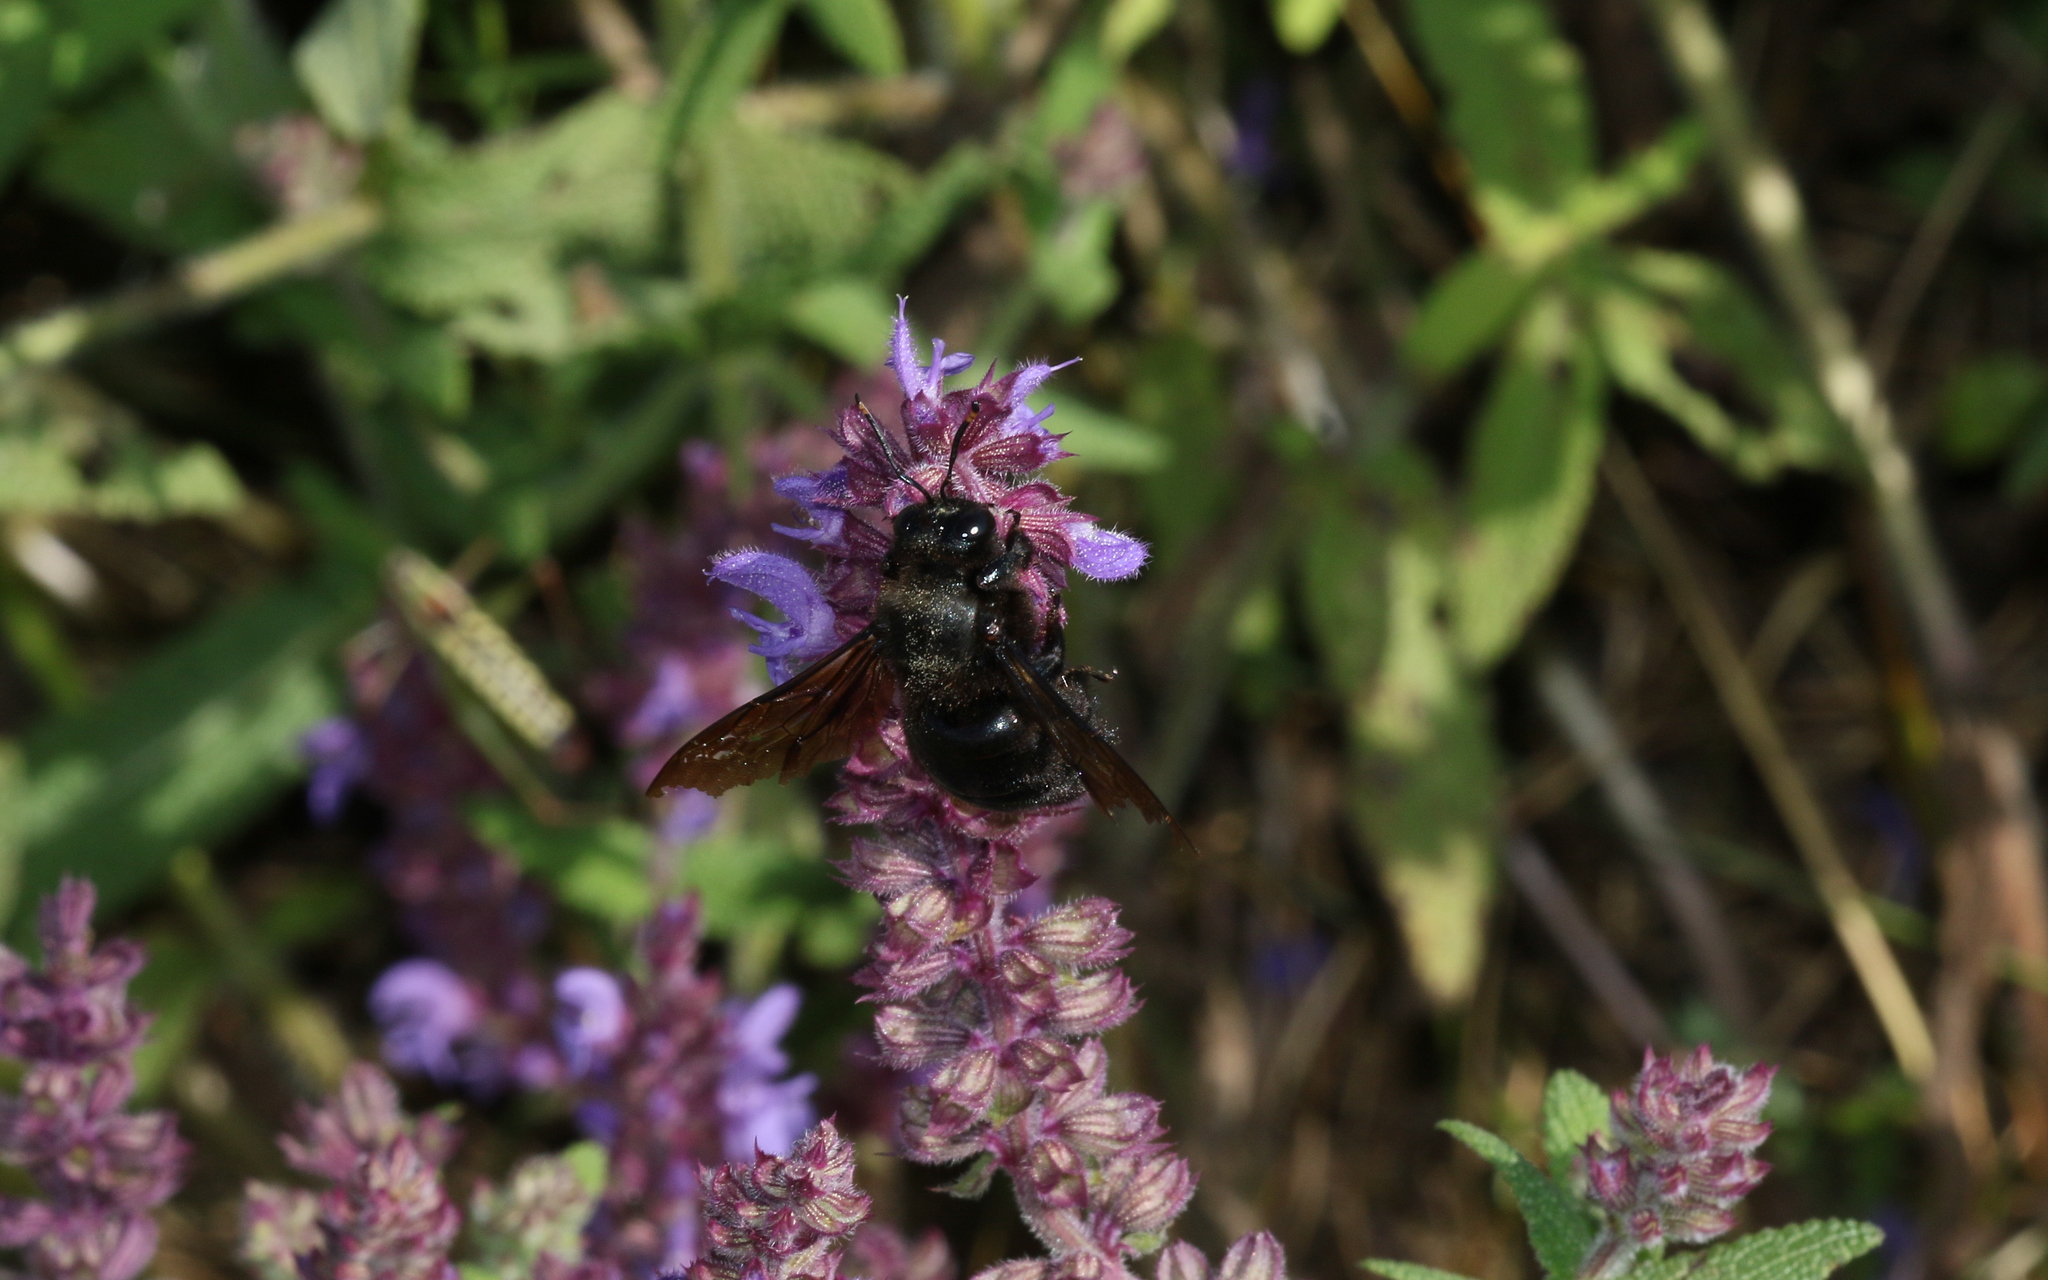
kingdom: Animalia
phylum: Arthropoda
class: Insecta
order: Hymenoptera
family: Apidae
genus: Xylocopa
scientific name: Xylocopa violacea
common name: Violet carpenter bee
